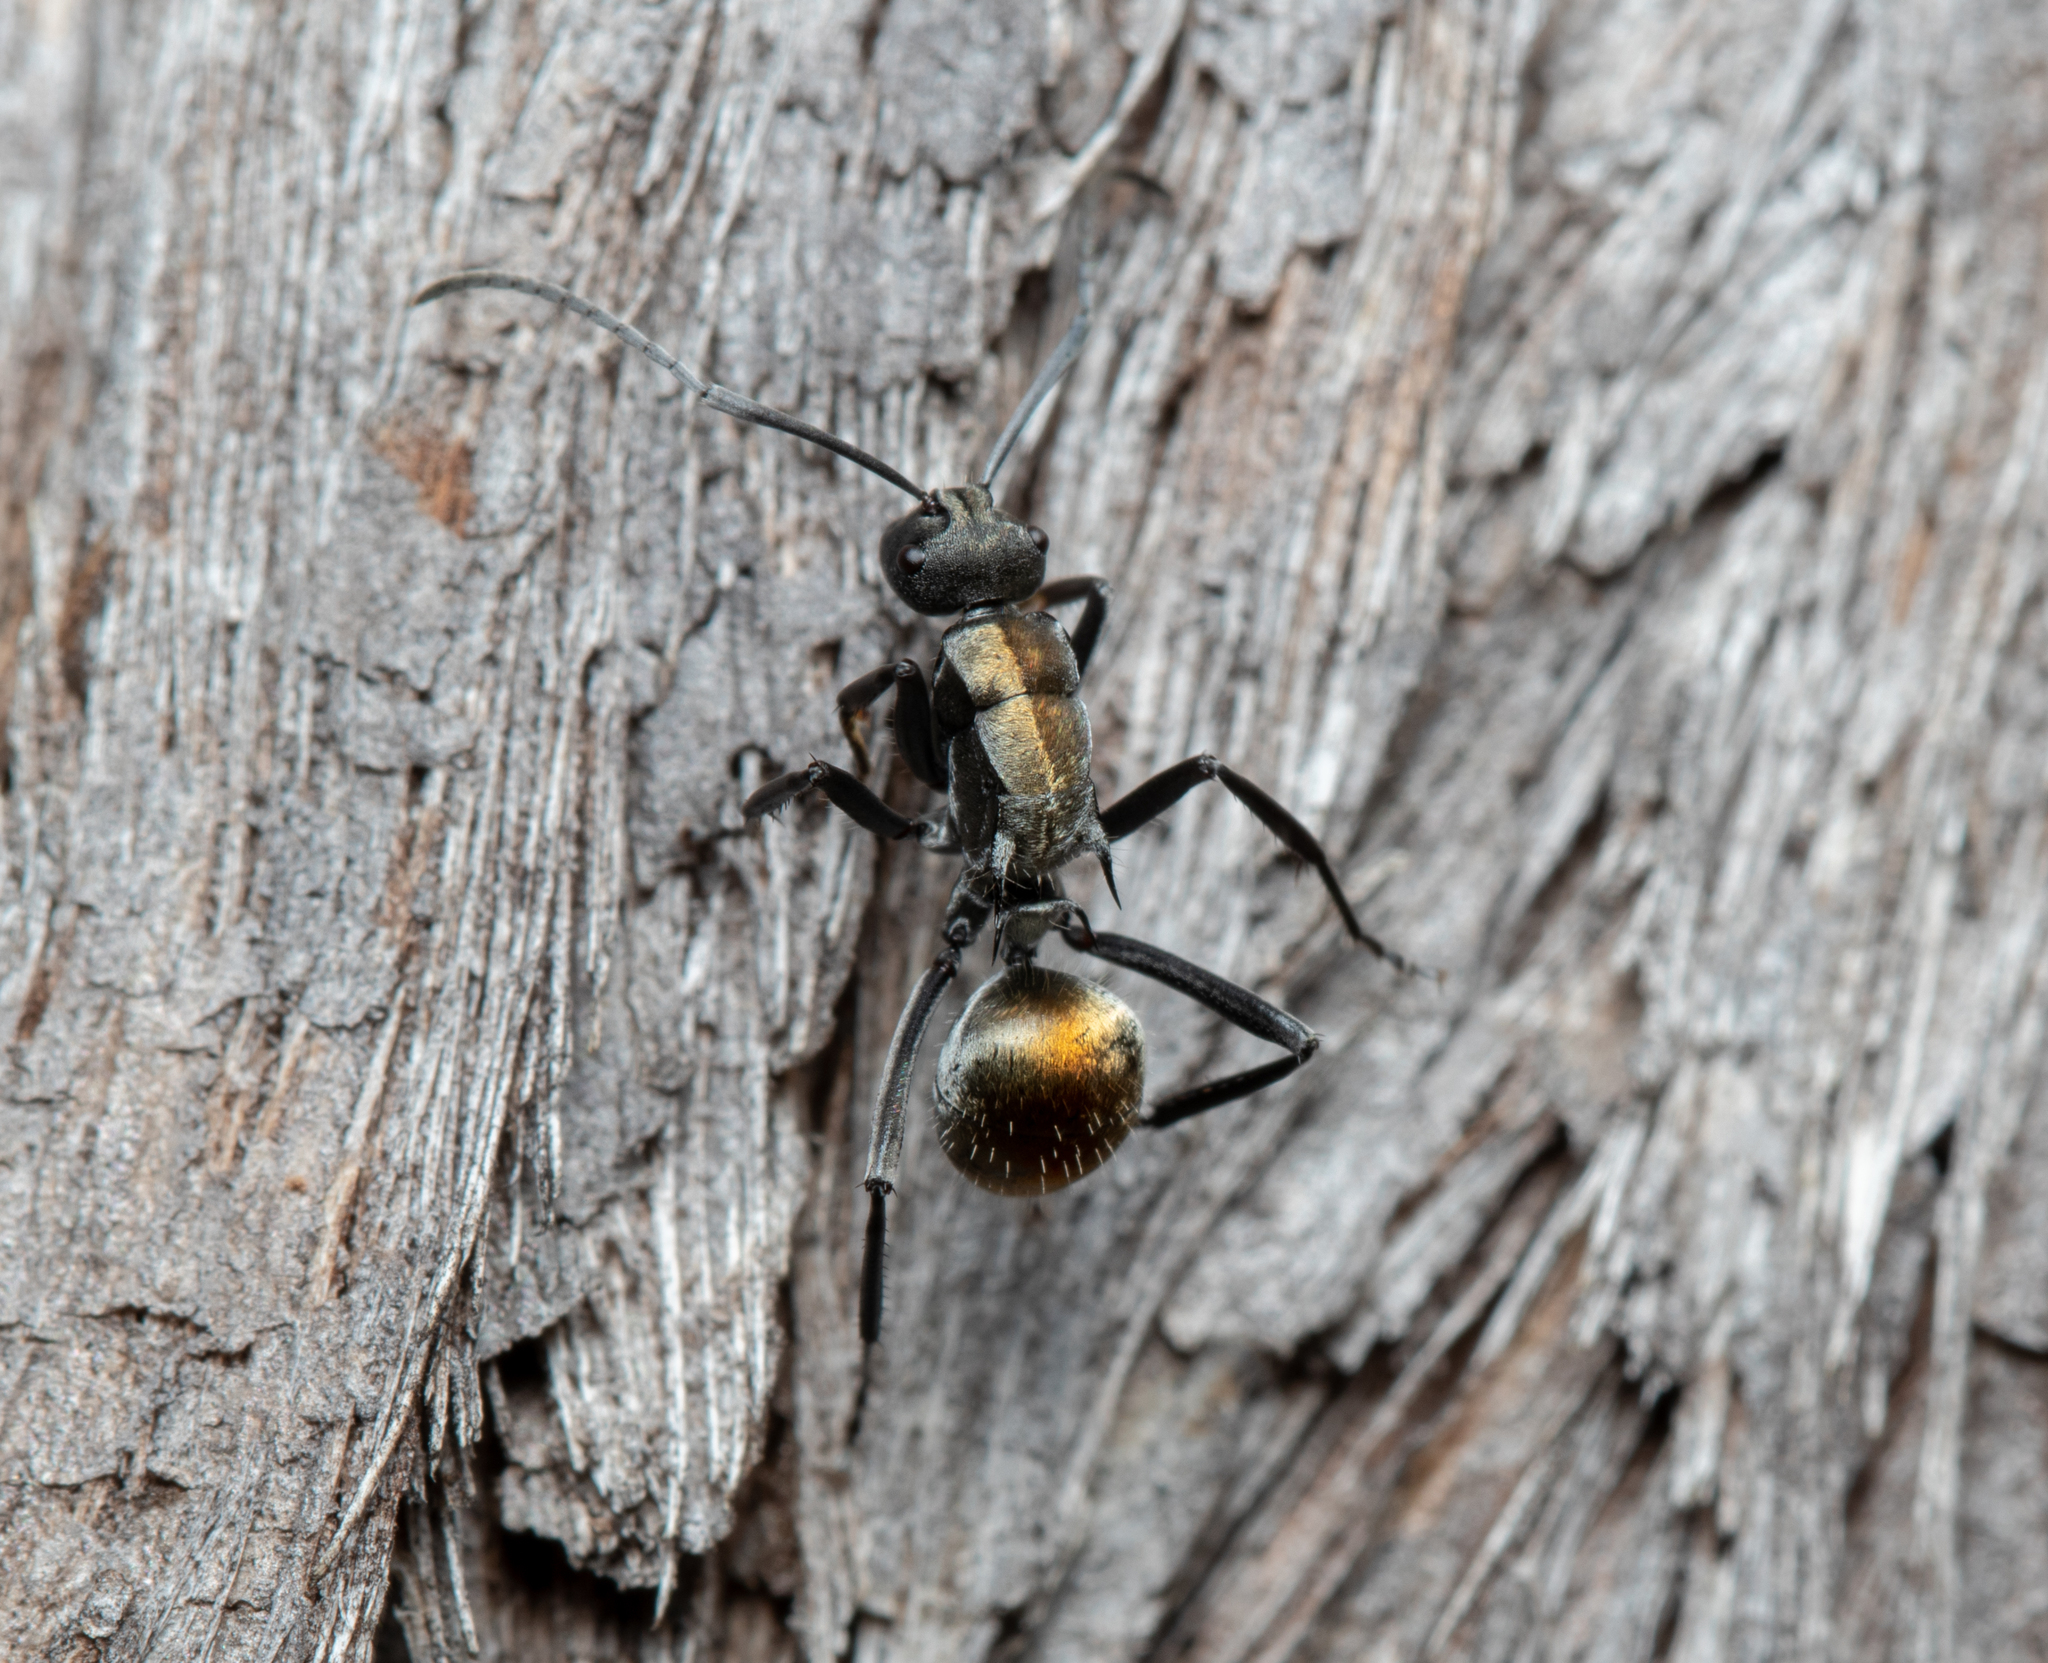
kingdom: Animalia
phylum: Arthropoda
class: Insecta
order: Hymenoptera
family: Formicidae
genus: Polyrhachis
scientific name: Polyrhachis ammon
